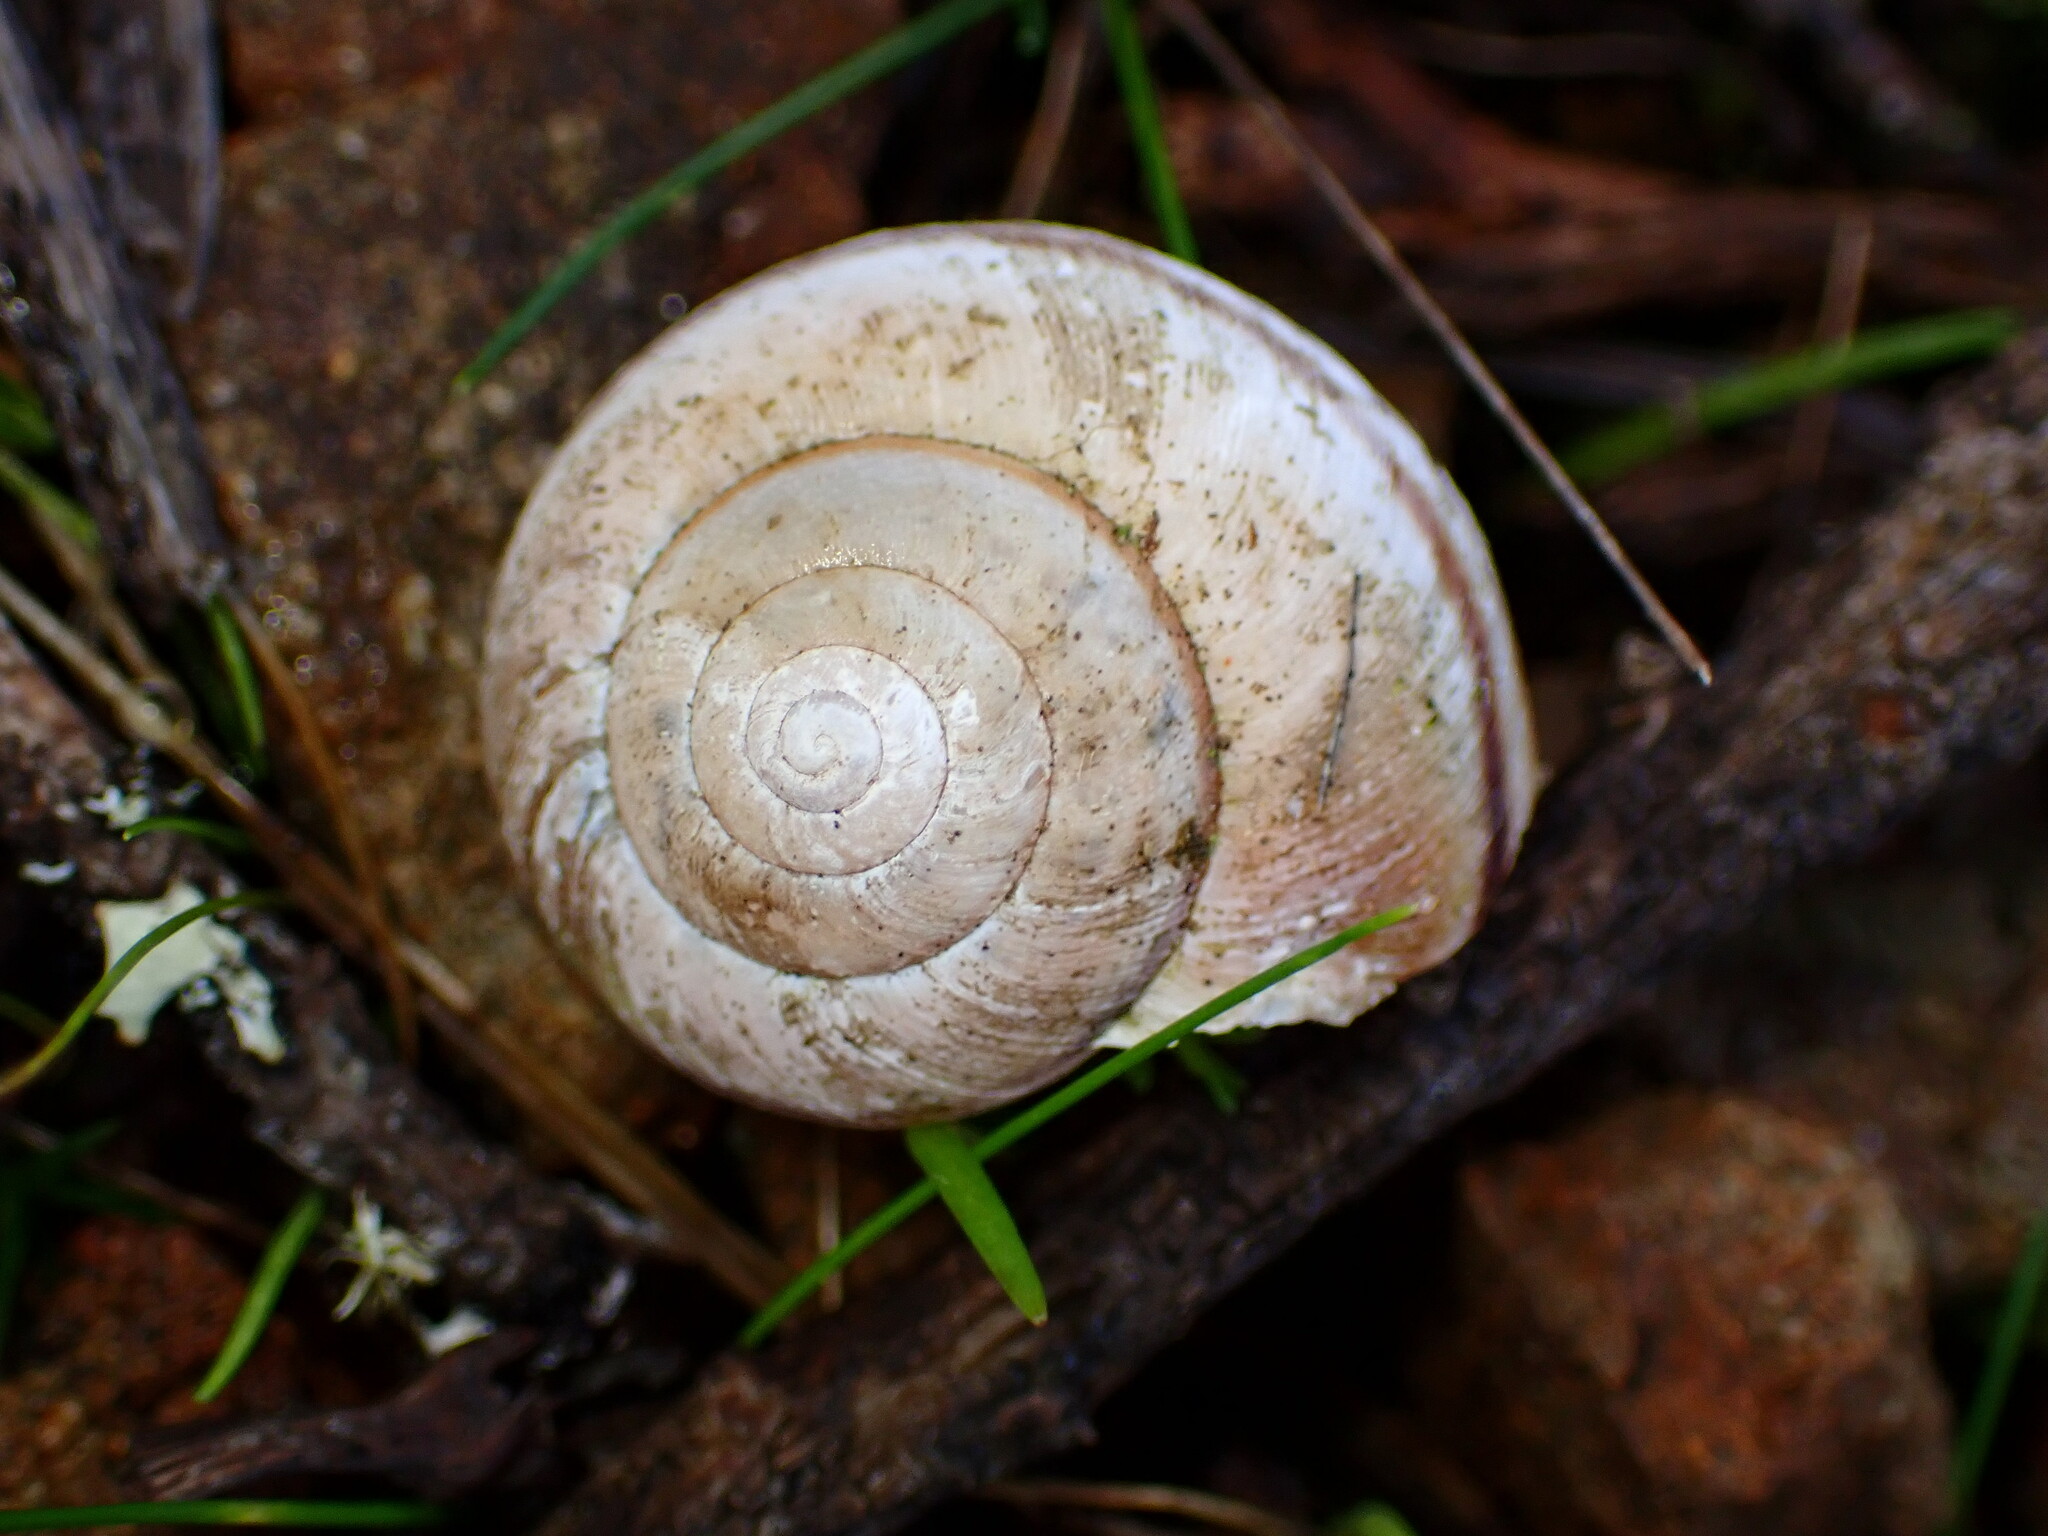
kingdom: Animalia
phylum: Mollusca
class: Gastropoda
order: Stylommatophora
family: Xanthonychidae
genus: Helminthoglypta
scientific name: Helminthoglypta nickliniana
